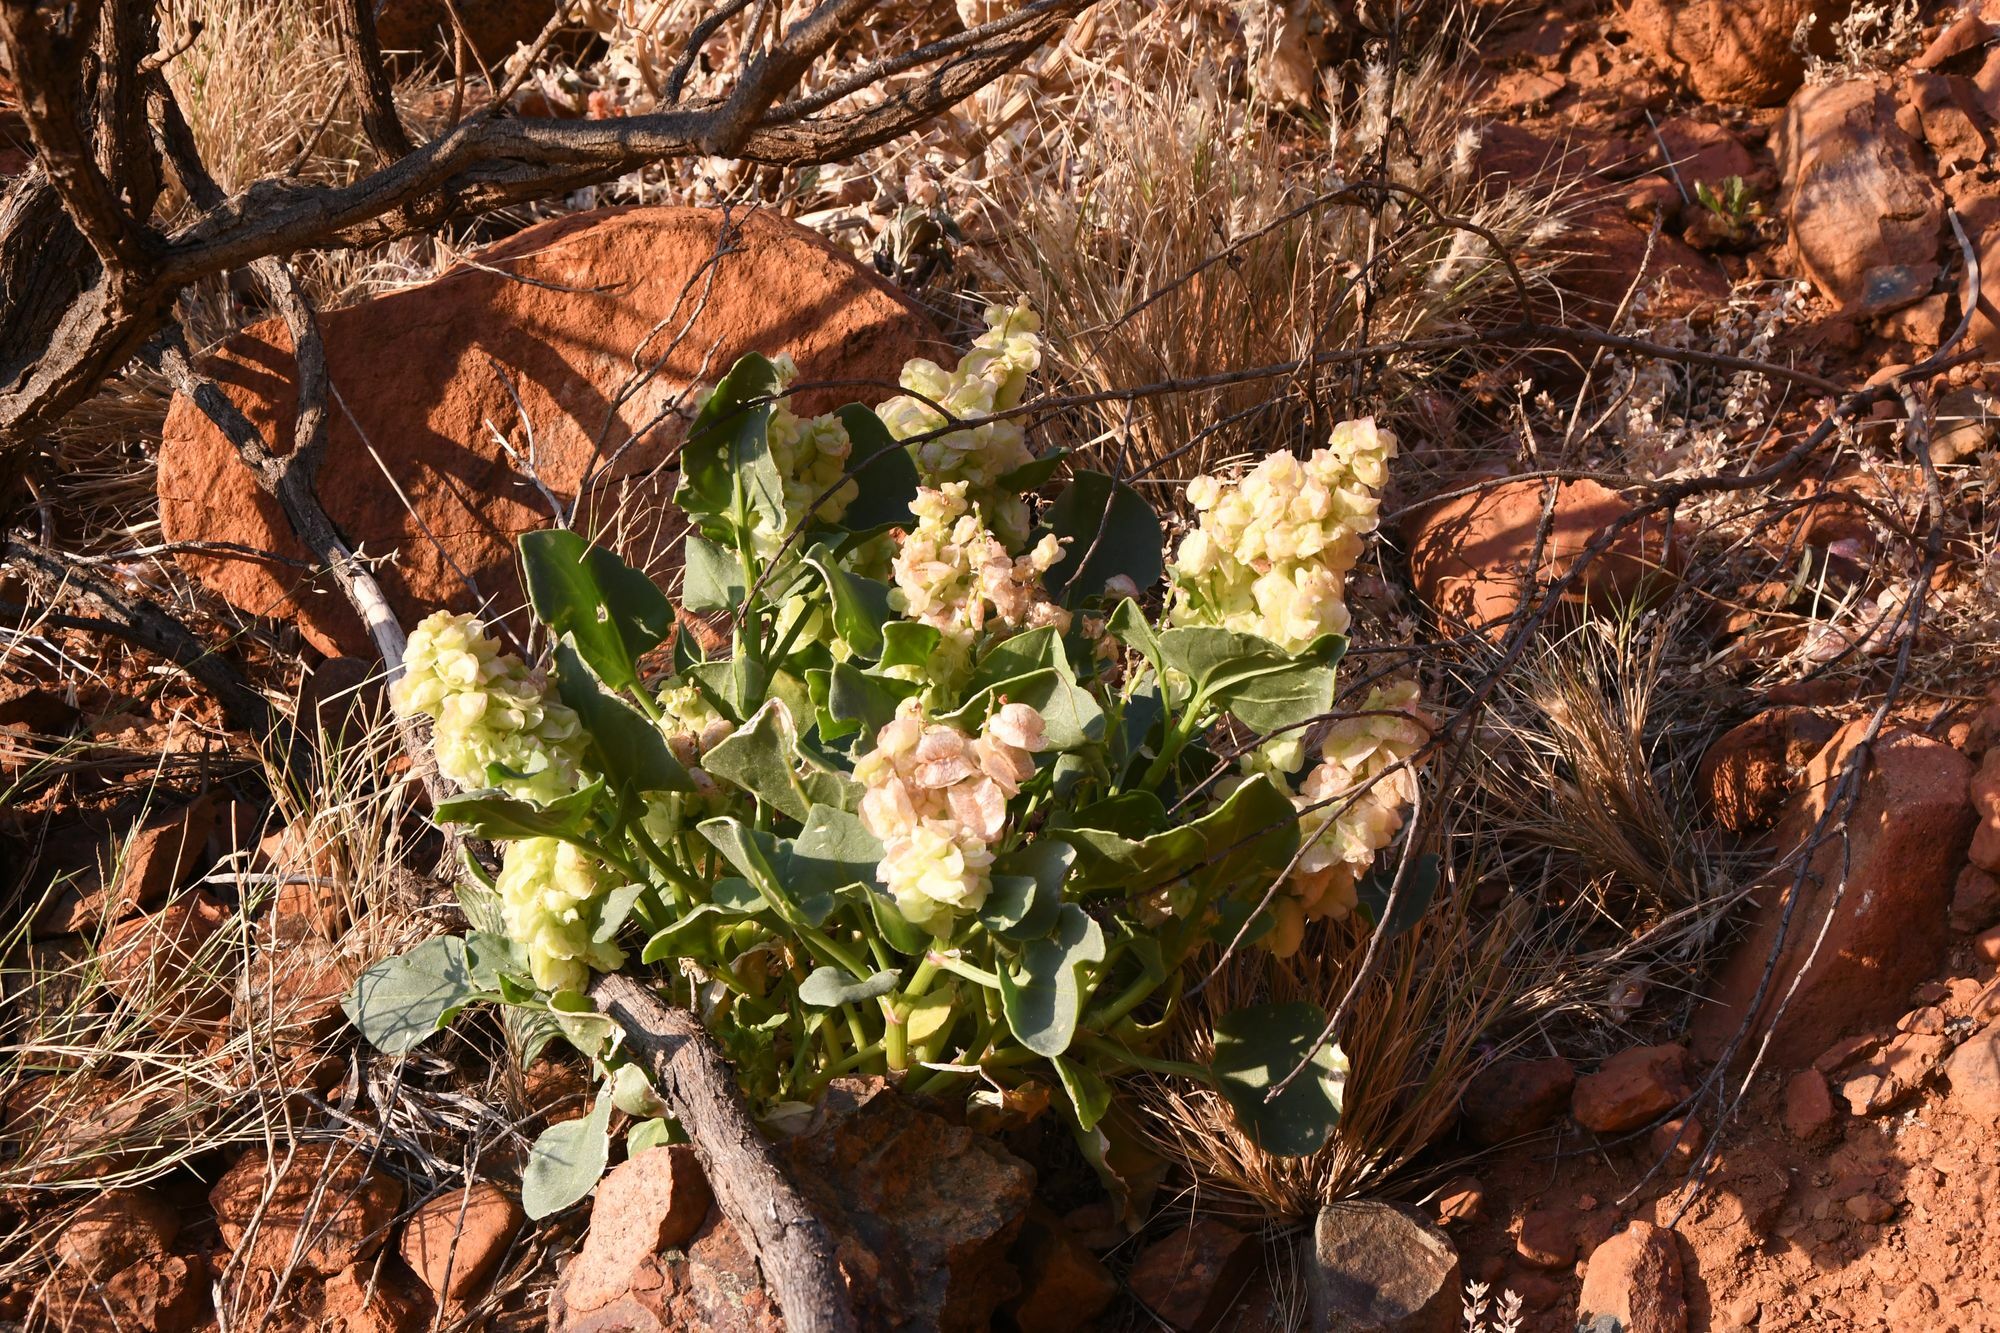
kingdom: Plantae
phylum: Tracheophyta
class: Magnoliopsida
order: Caryophyllales
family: Polygonaceae
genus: Rumex
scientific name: Rumex vesicarius
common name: Bladder dock
